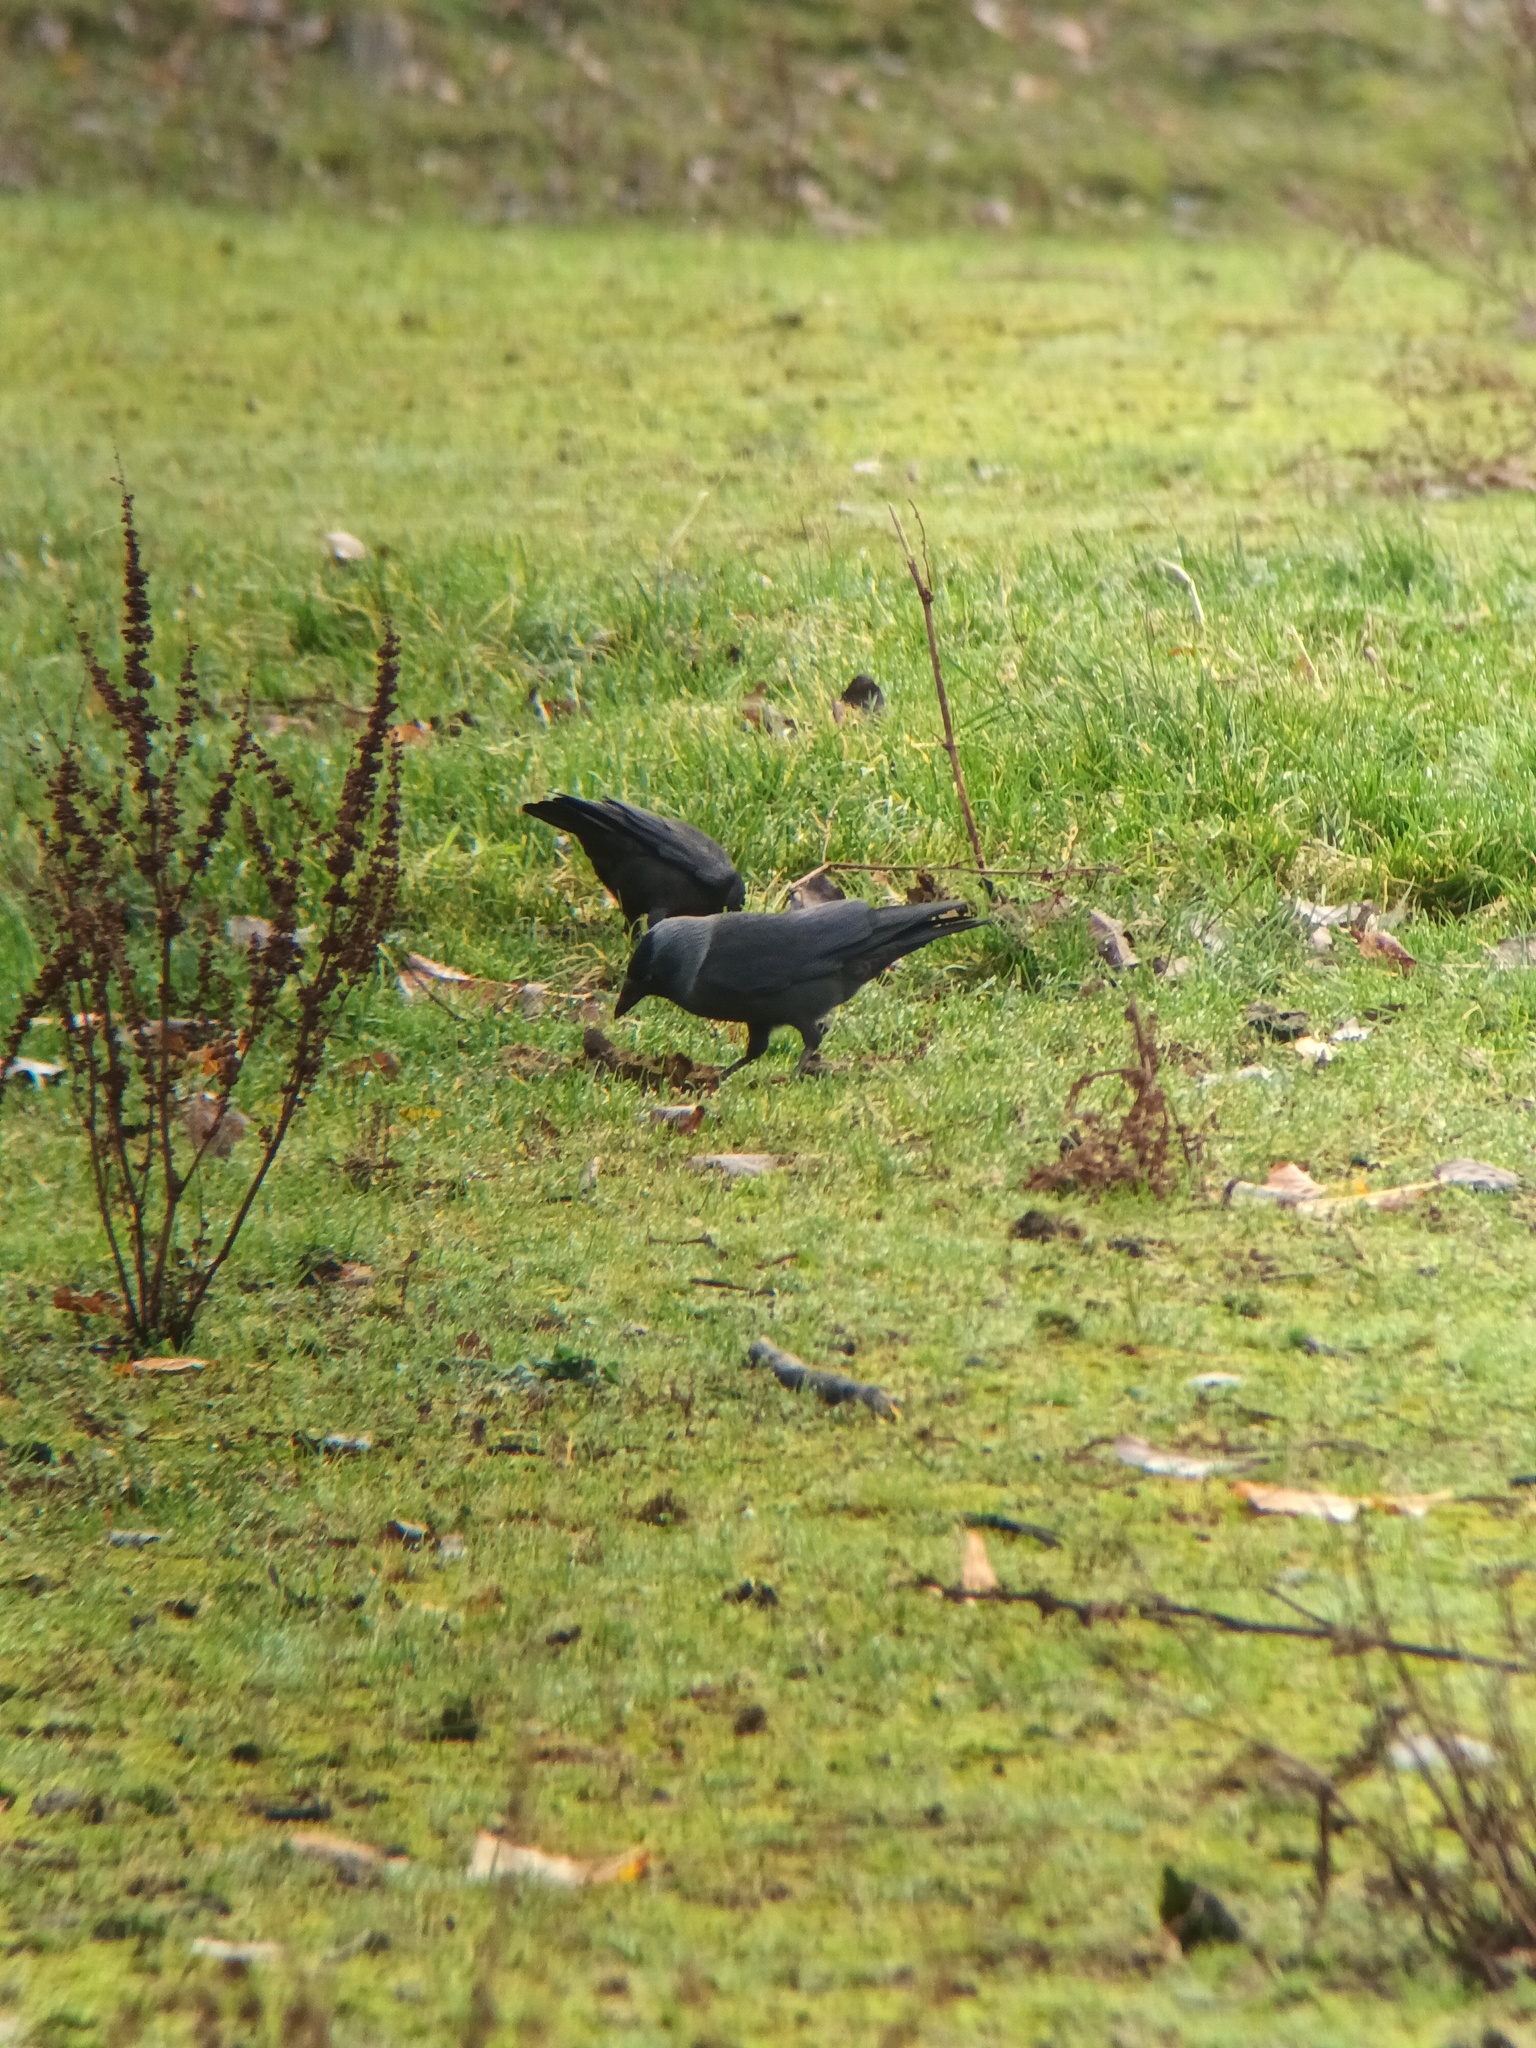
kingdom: Animalia
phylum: Chordata
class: Aves
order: Passeriformes
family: Corvidae
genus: Coloeus
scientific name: Coloeus monedula
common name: Western jackdaw
